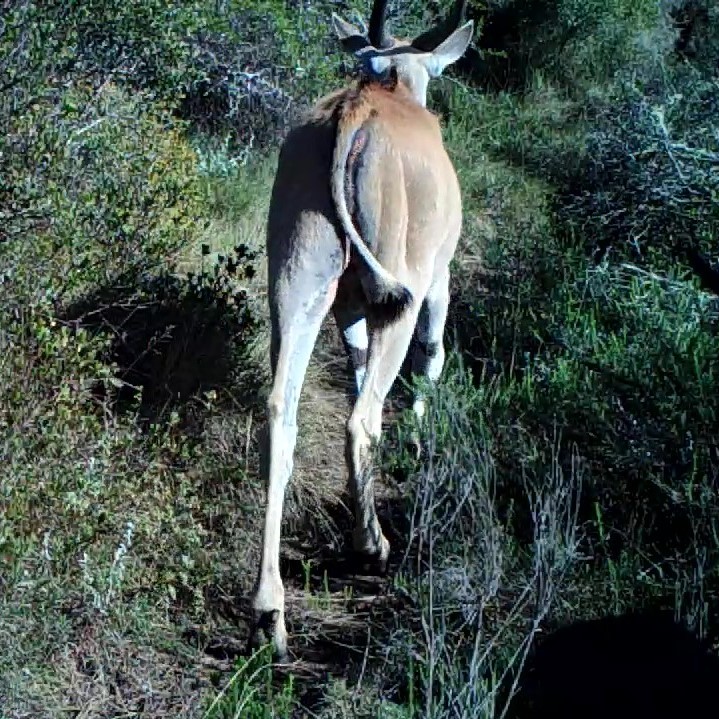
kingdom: Animalia
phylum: Chordata
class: Mammalia
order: Artiodactyla
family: Bovidae
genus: Taurotragus
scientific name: Taurotragus oryx
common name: Common eland
